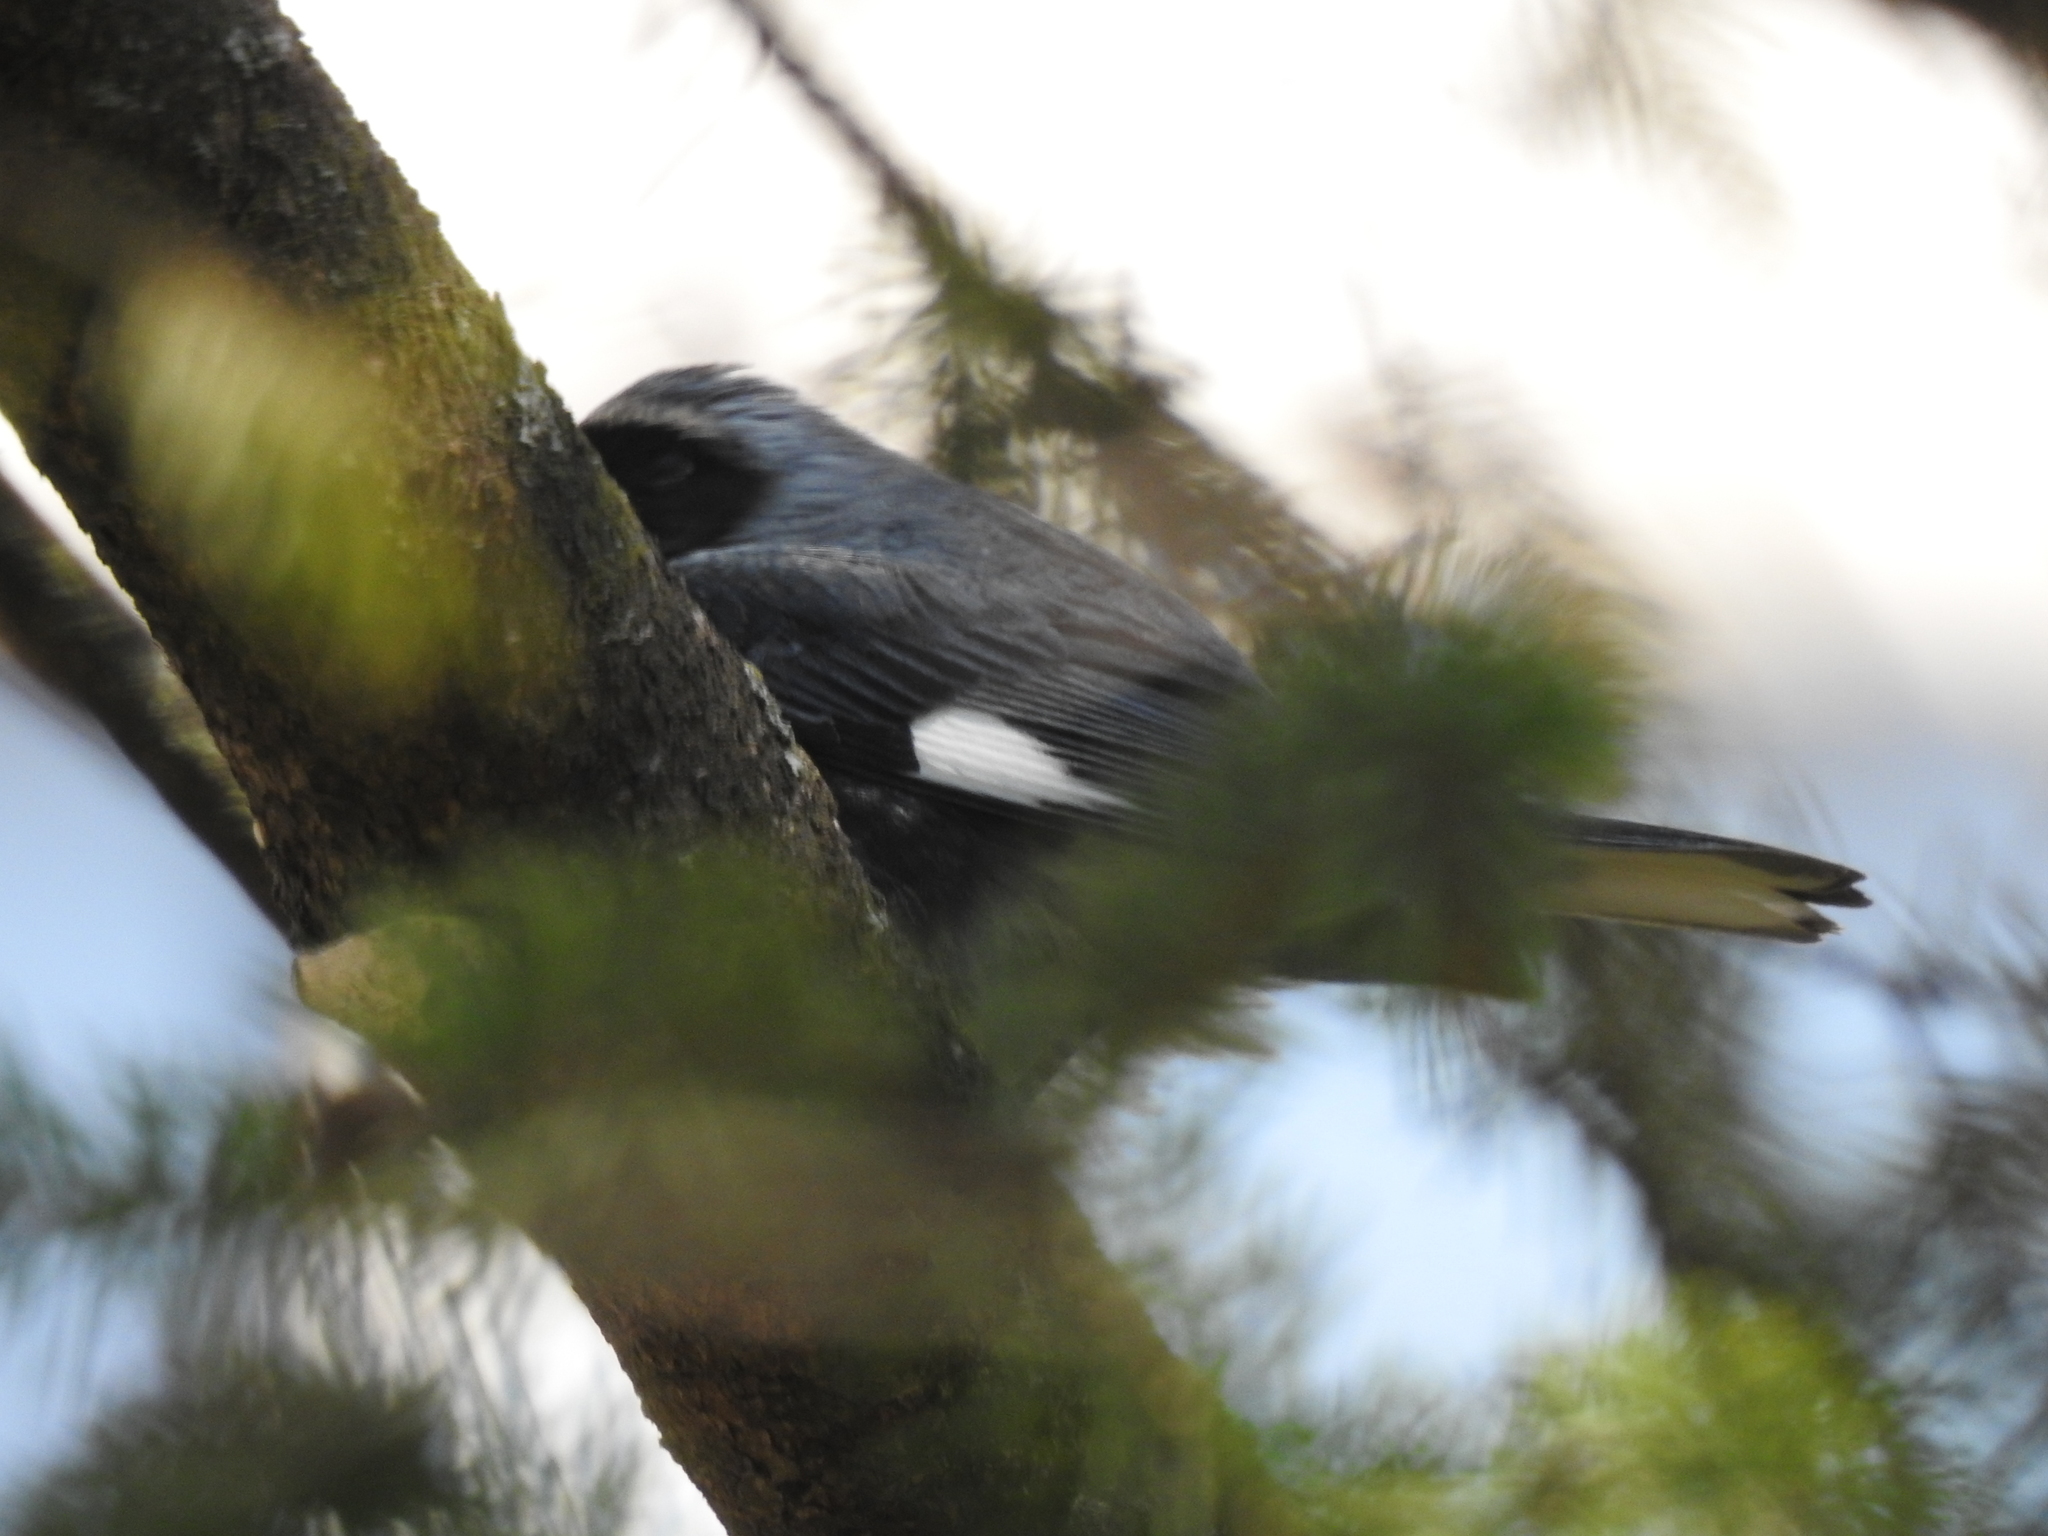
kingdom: Animalia
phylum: Chordata
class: Aves
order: Passeriformes
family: Parulidae
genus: Setophaga
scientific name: Setophaga caerulescens
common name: Black-throated blue warbler
